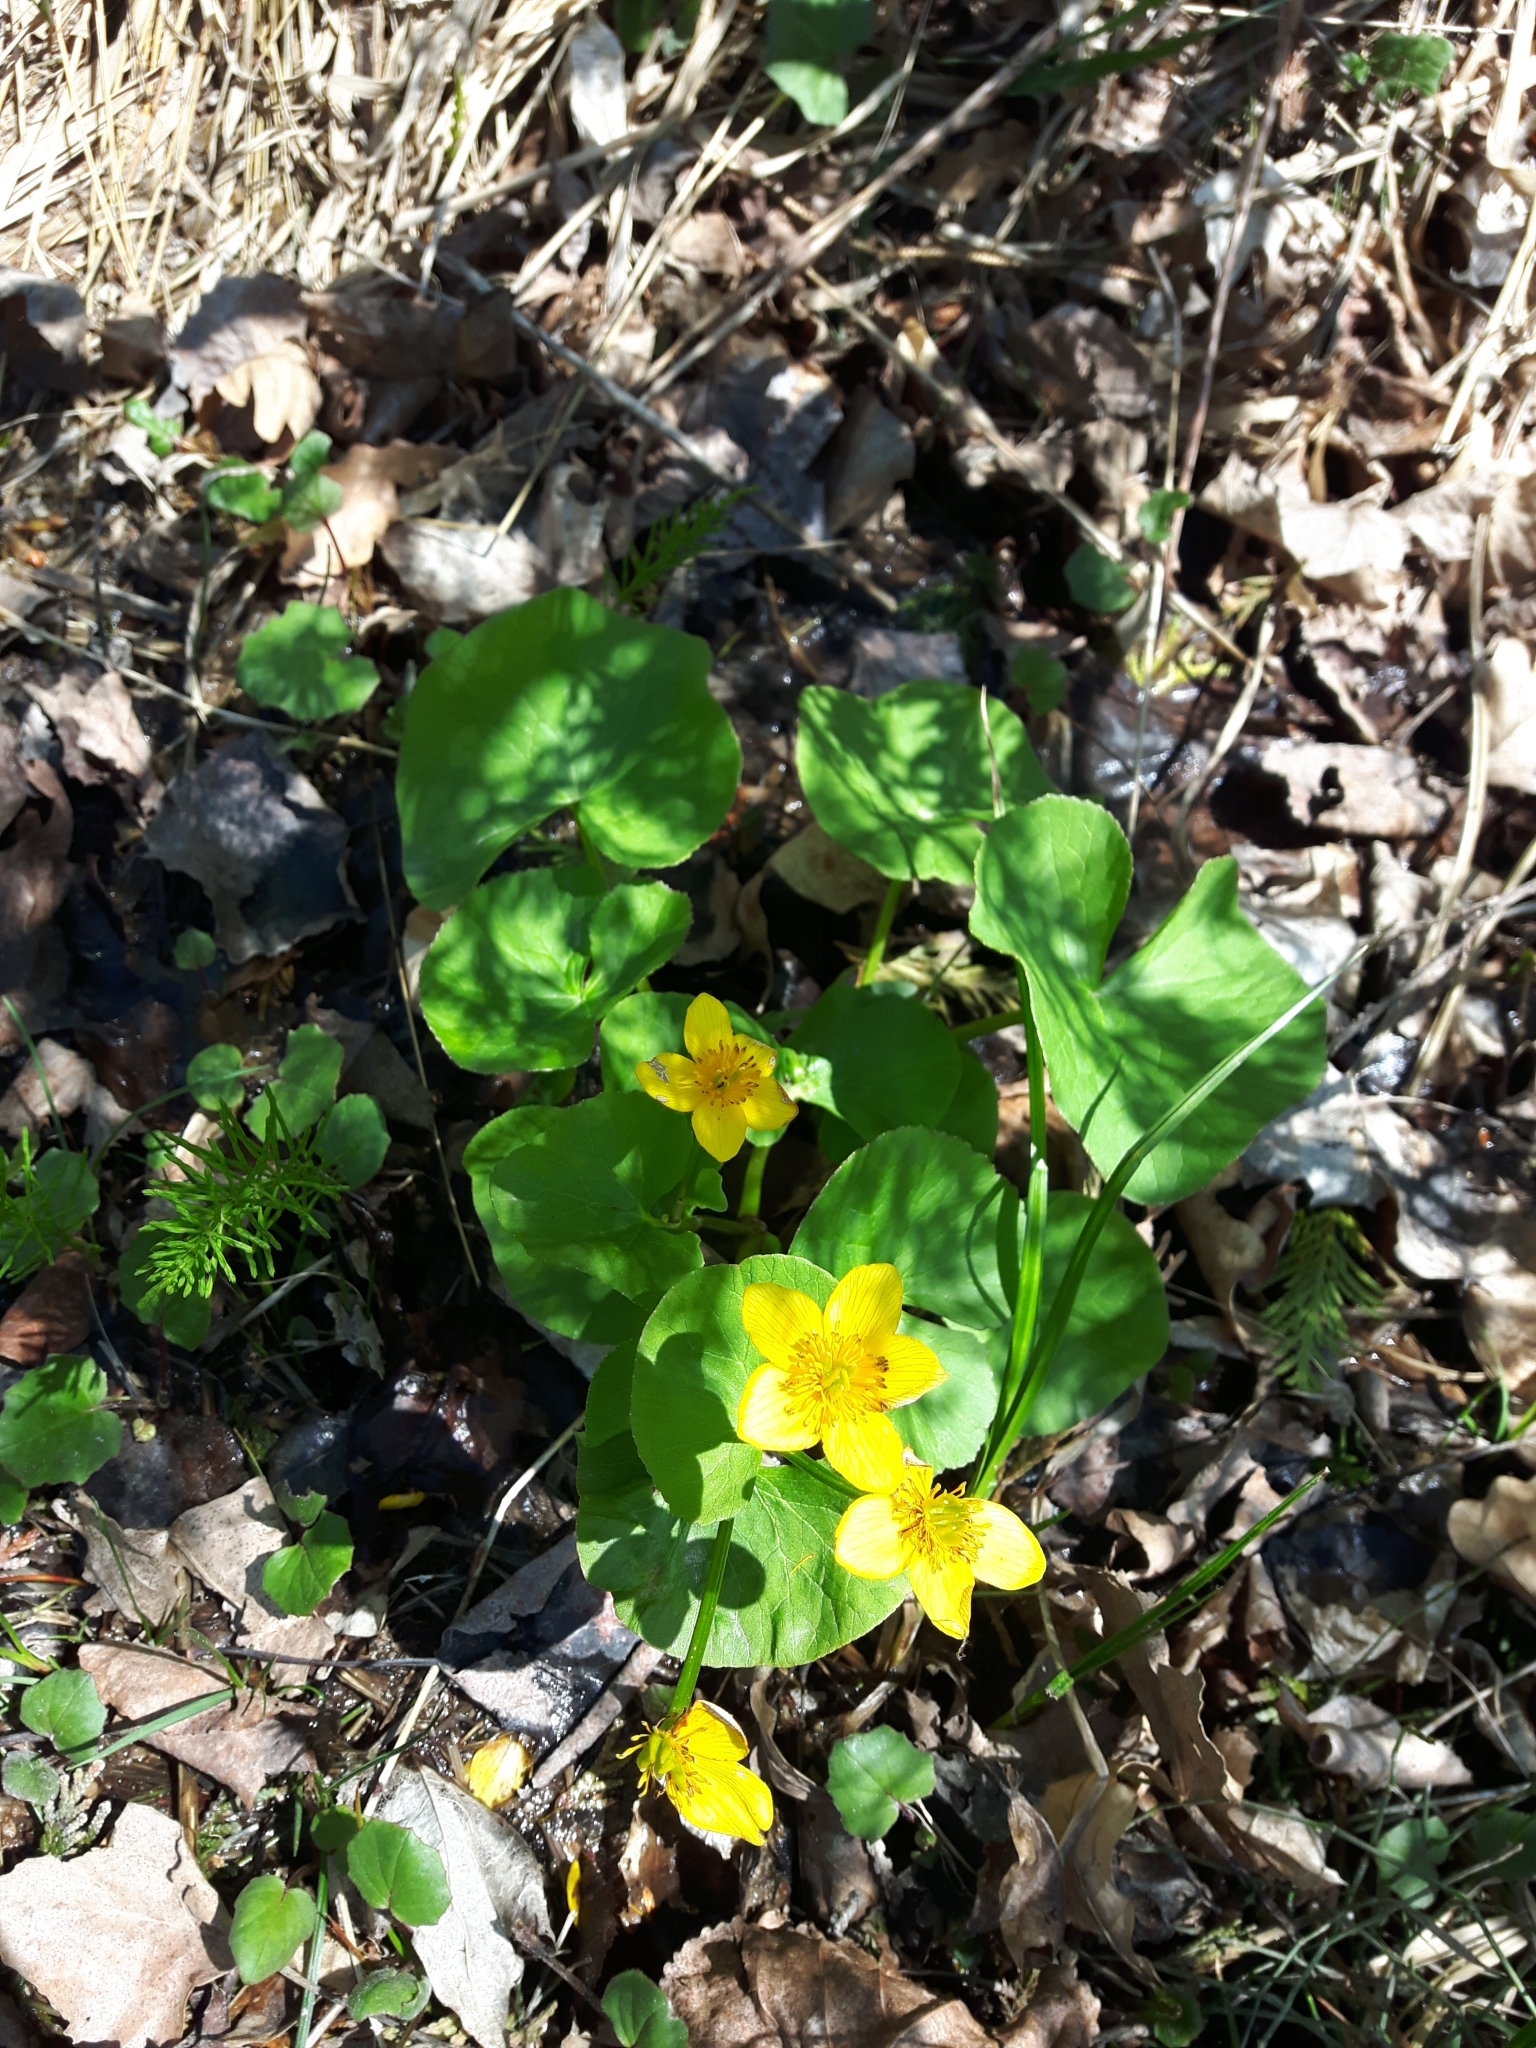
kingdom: Plantae
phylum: Tracheophyta
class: Magnoliopsida
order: Ranunculales
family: Ranunculaceae
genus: Caltha
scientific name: Caltha palustris
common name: Marsh marigold
